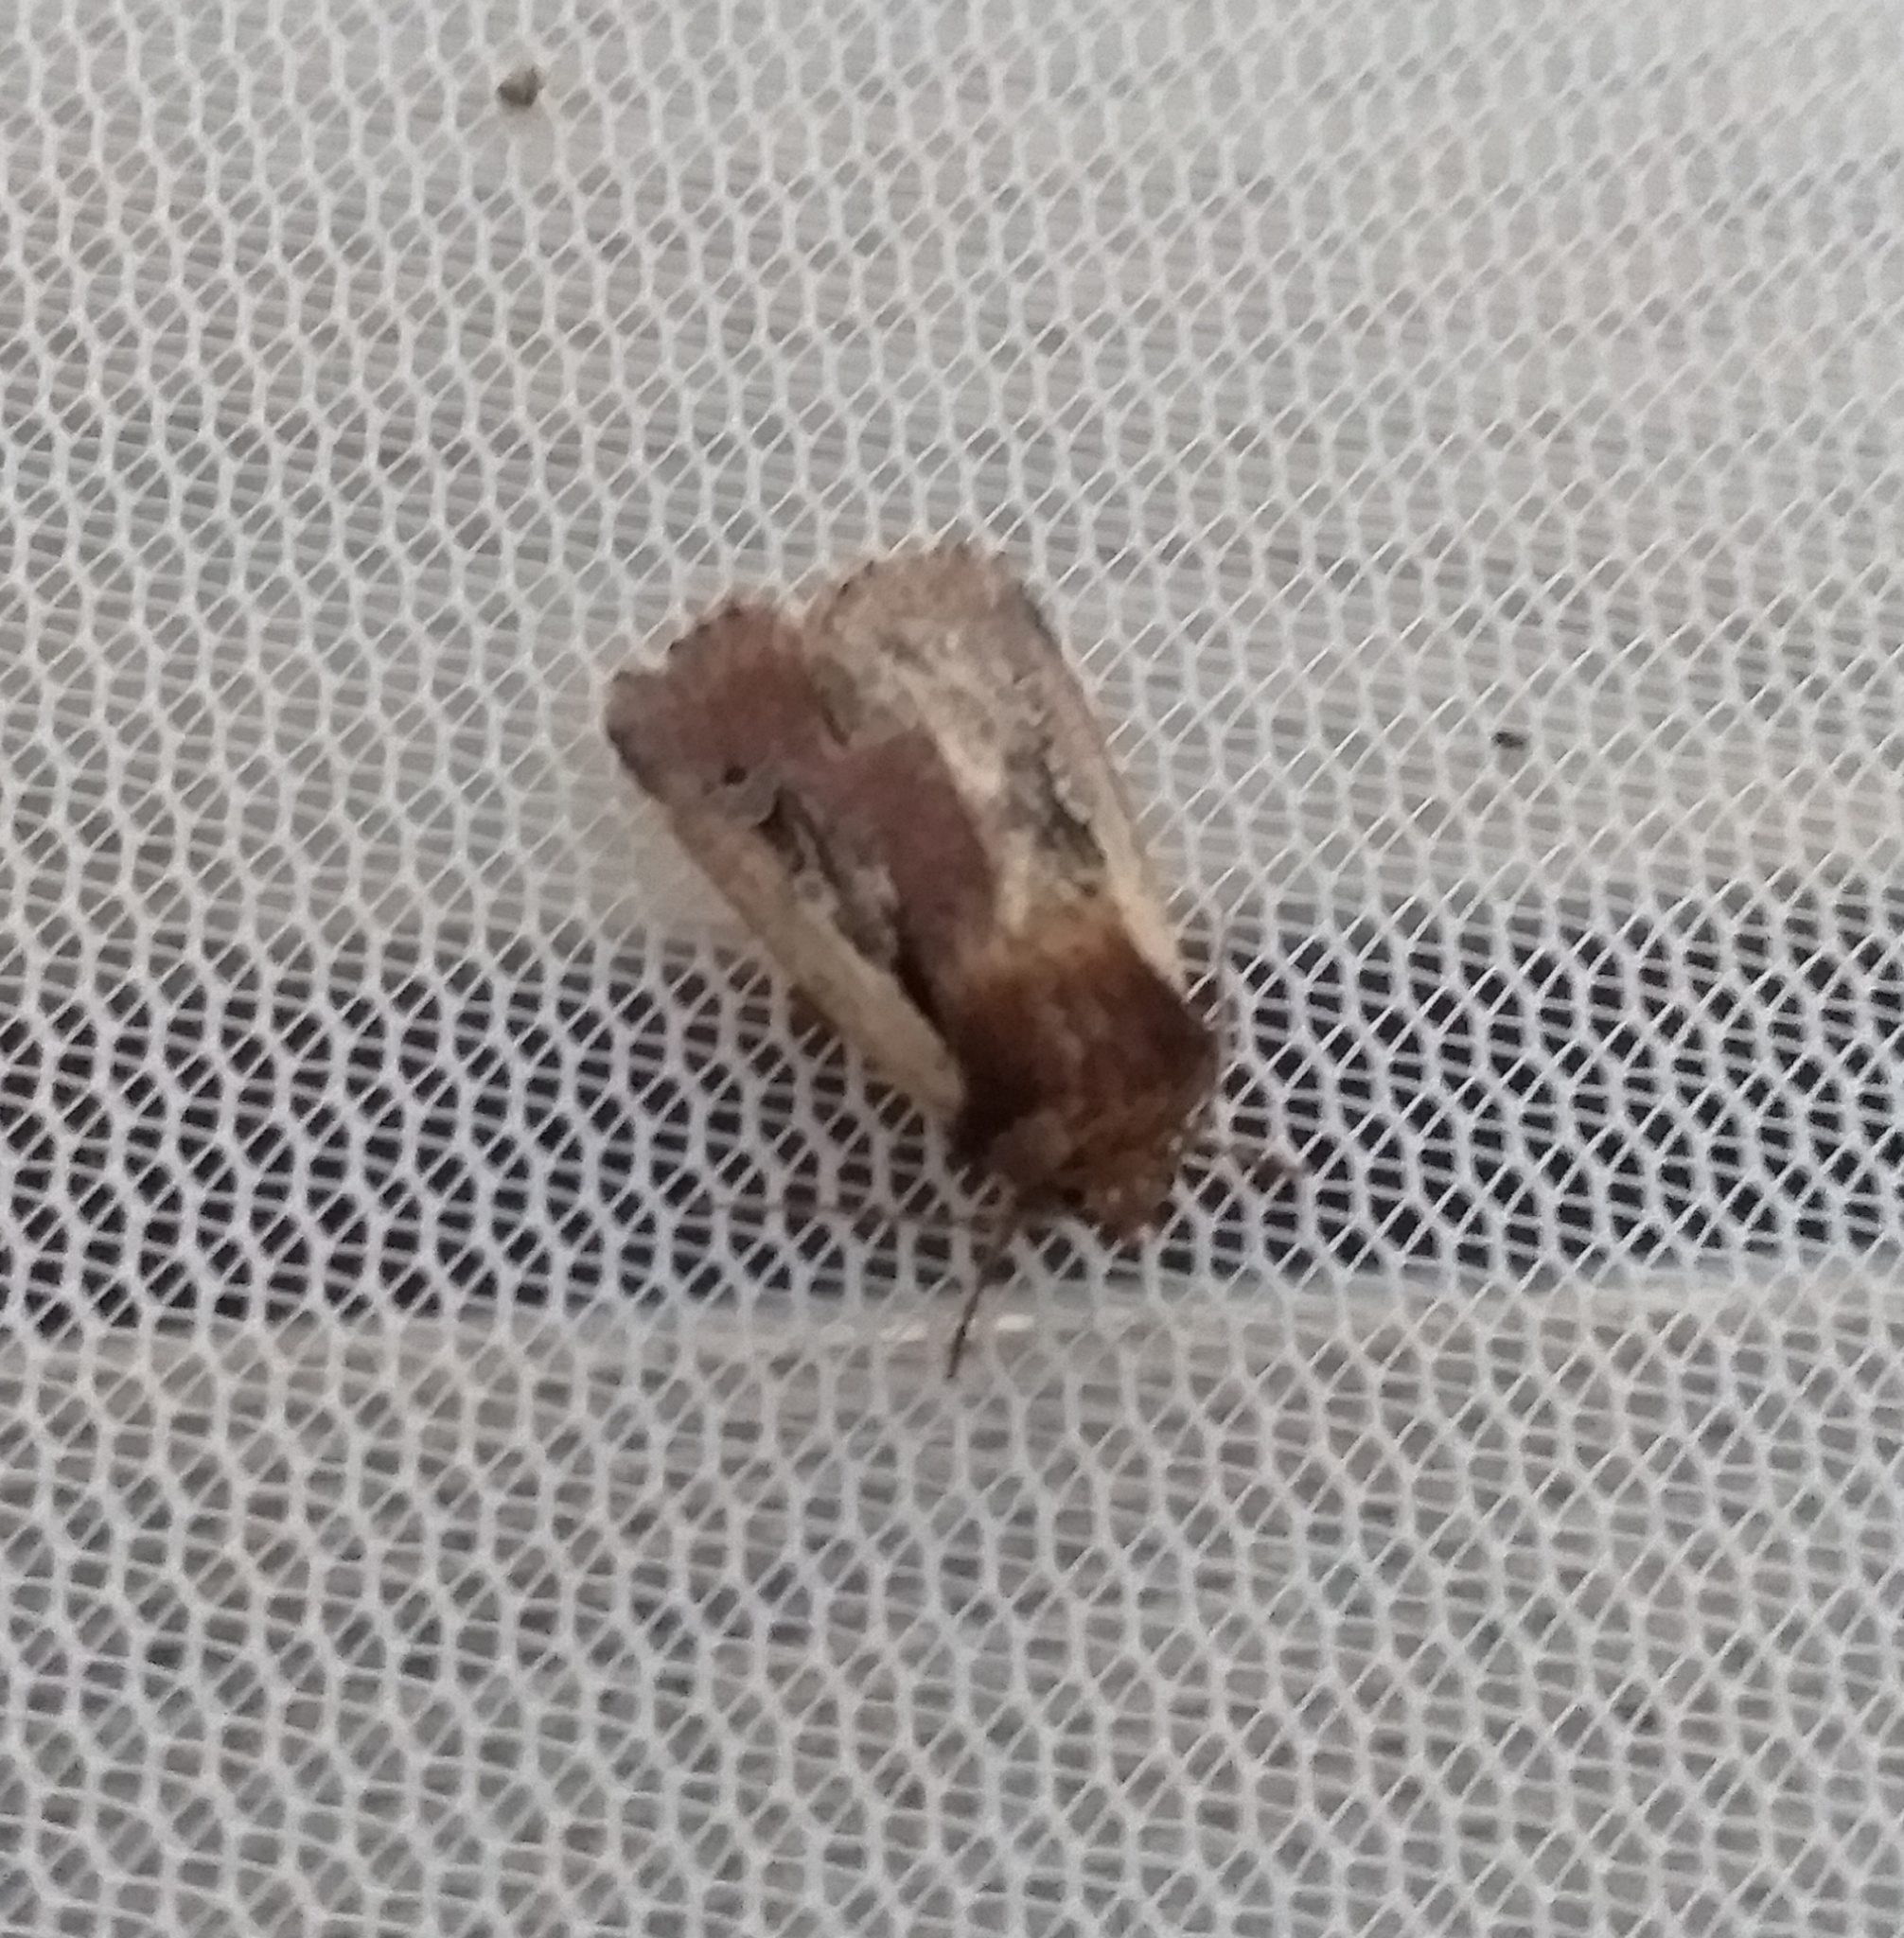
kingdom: Animalia
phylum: Arthropoda
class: Insecta
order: Lepidoptera
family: Noctuidae
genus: Ochropleura
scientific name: Ochropleura plecta
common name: Flame shoulder
